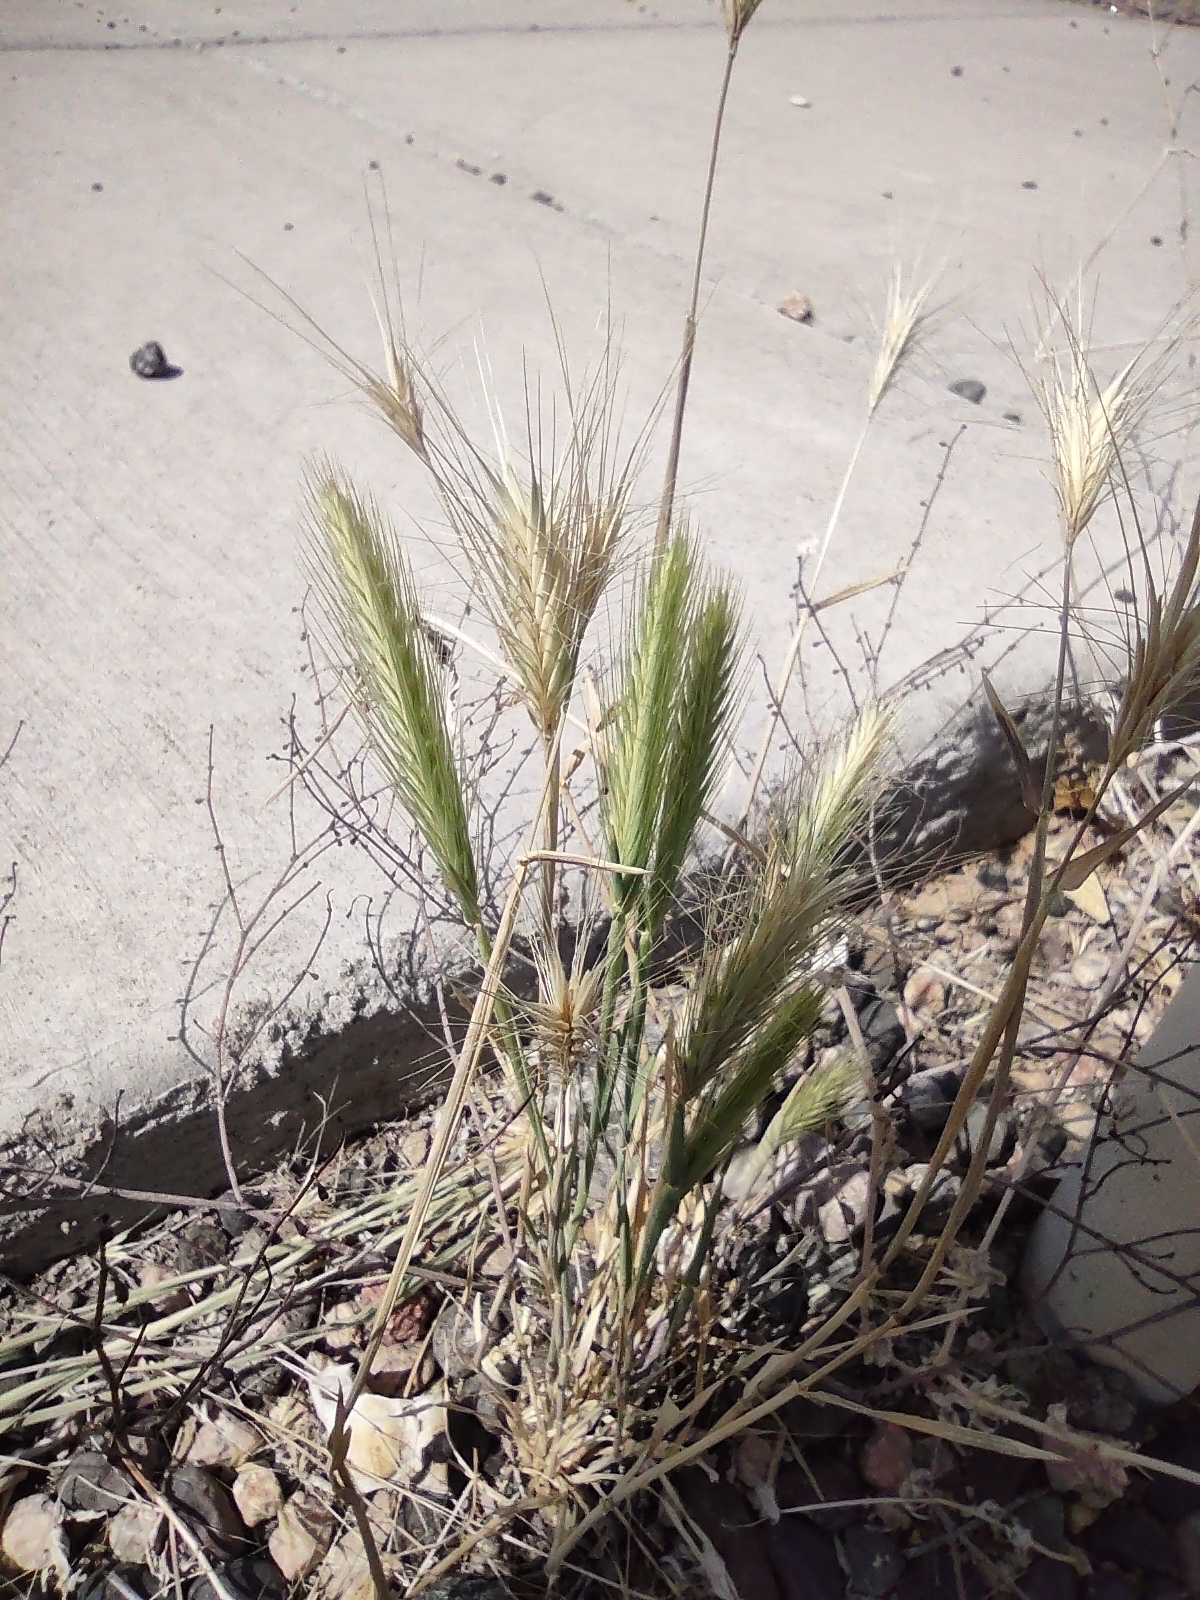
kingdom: Plantae
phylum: Tracheophyta
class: Liliopsida
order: Poales
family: Poaceae
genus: Hordeum
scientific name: Hordeum murinum
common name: Wall barley
